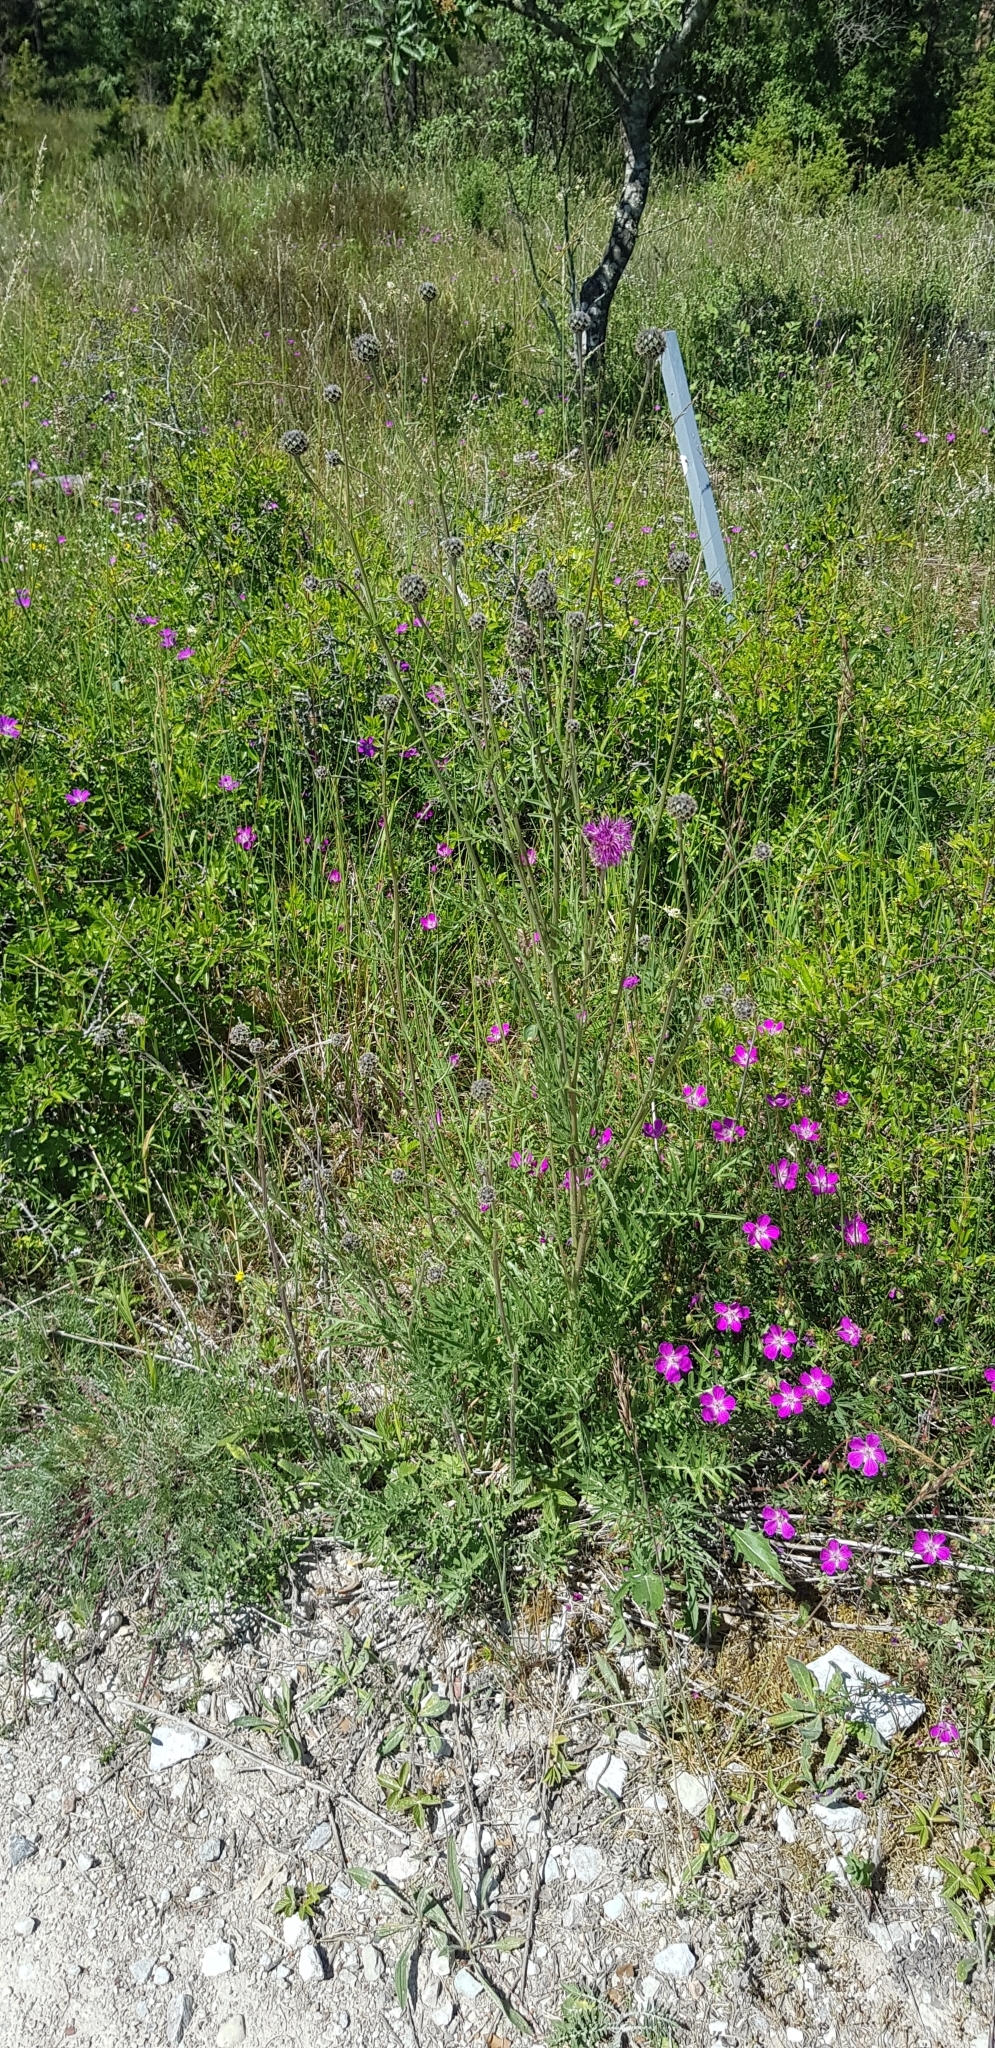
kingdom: Plantae
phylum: Tracheophyta
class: Magnoliopsida
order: Asterales
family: Asteraceae
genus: Centaurea
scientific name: Centaurea scabiosa
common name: Greater knapweed
